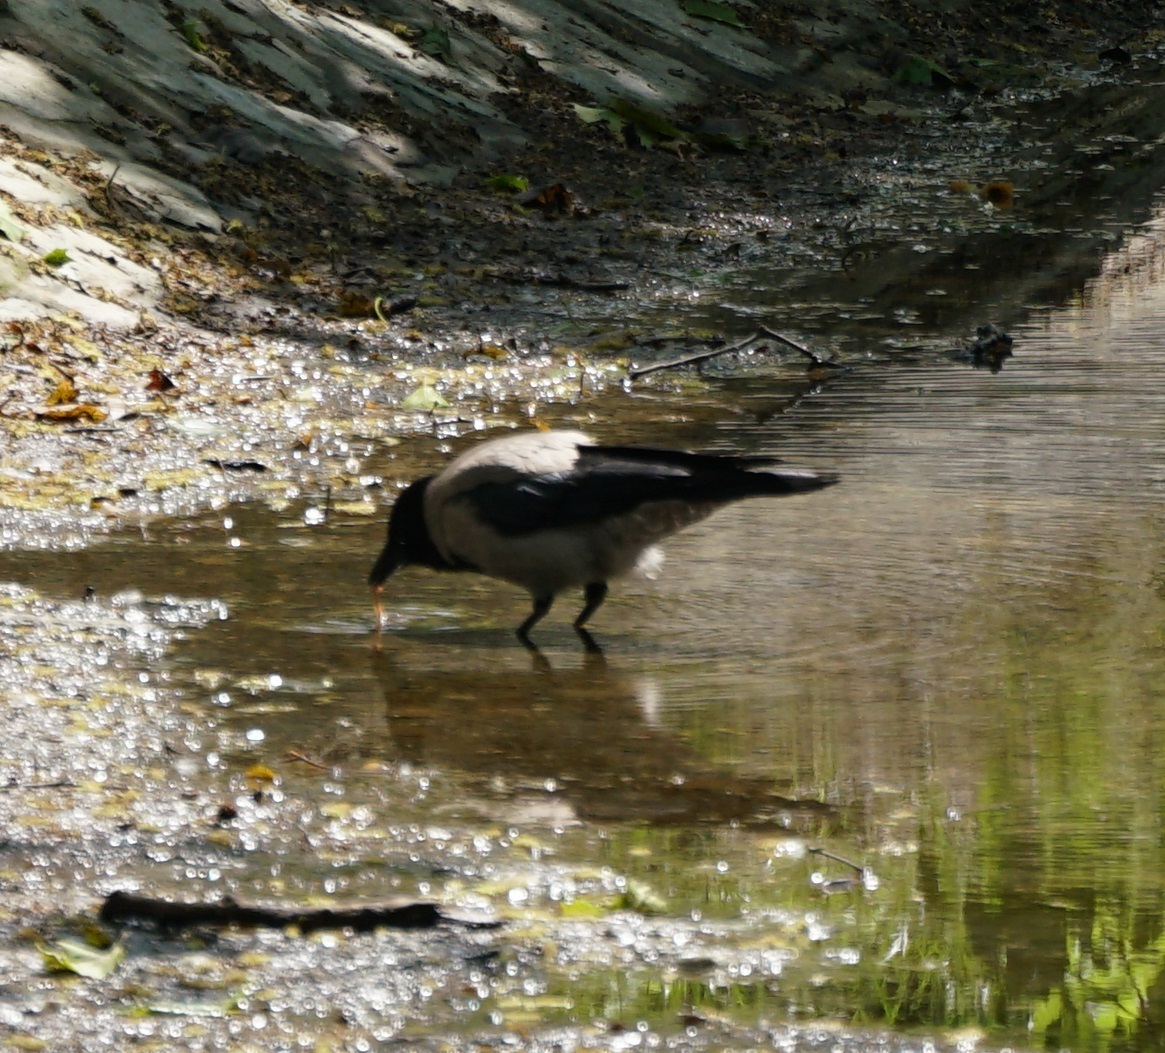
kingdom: Animalia
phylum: Chordata
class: Aves
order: Passeriformes
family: Corvidae
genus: Corvus
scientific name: Corvus cornix
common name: Hooded crow
